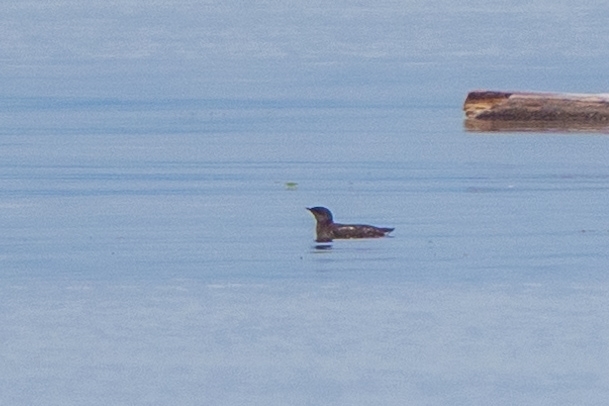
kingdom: Animalia
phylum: Chordata
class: Aves
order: Charadriiformes
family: Alcidae
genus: Brachyramphus
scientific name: Brachyramphus marmoratus
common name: Marbled murrelet
